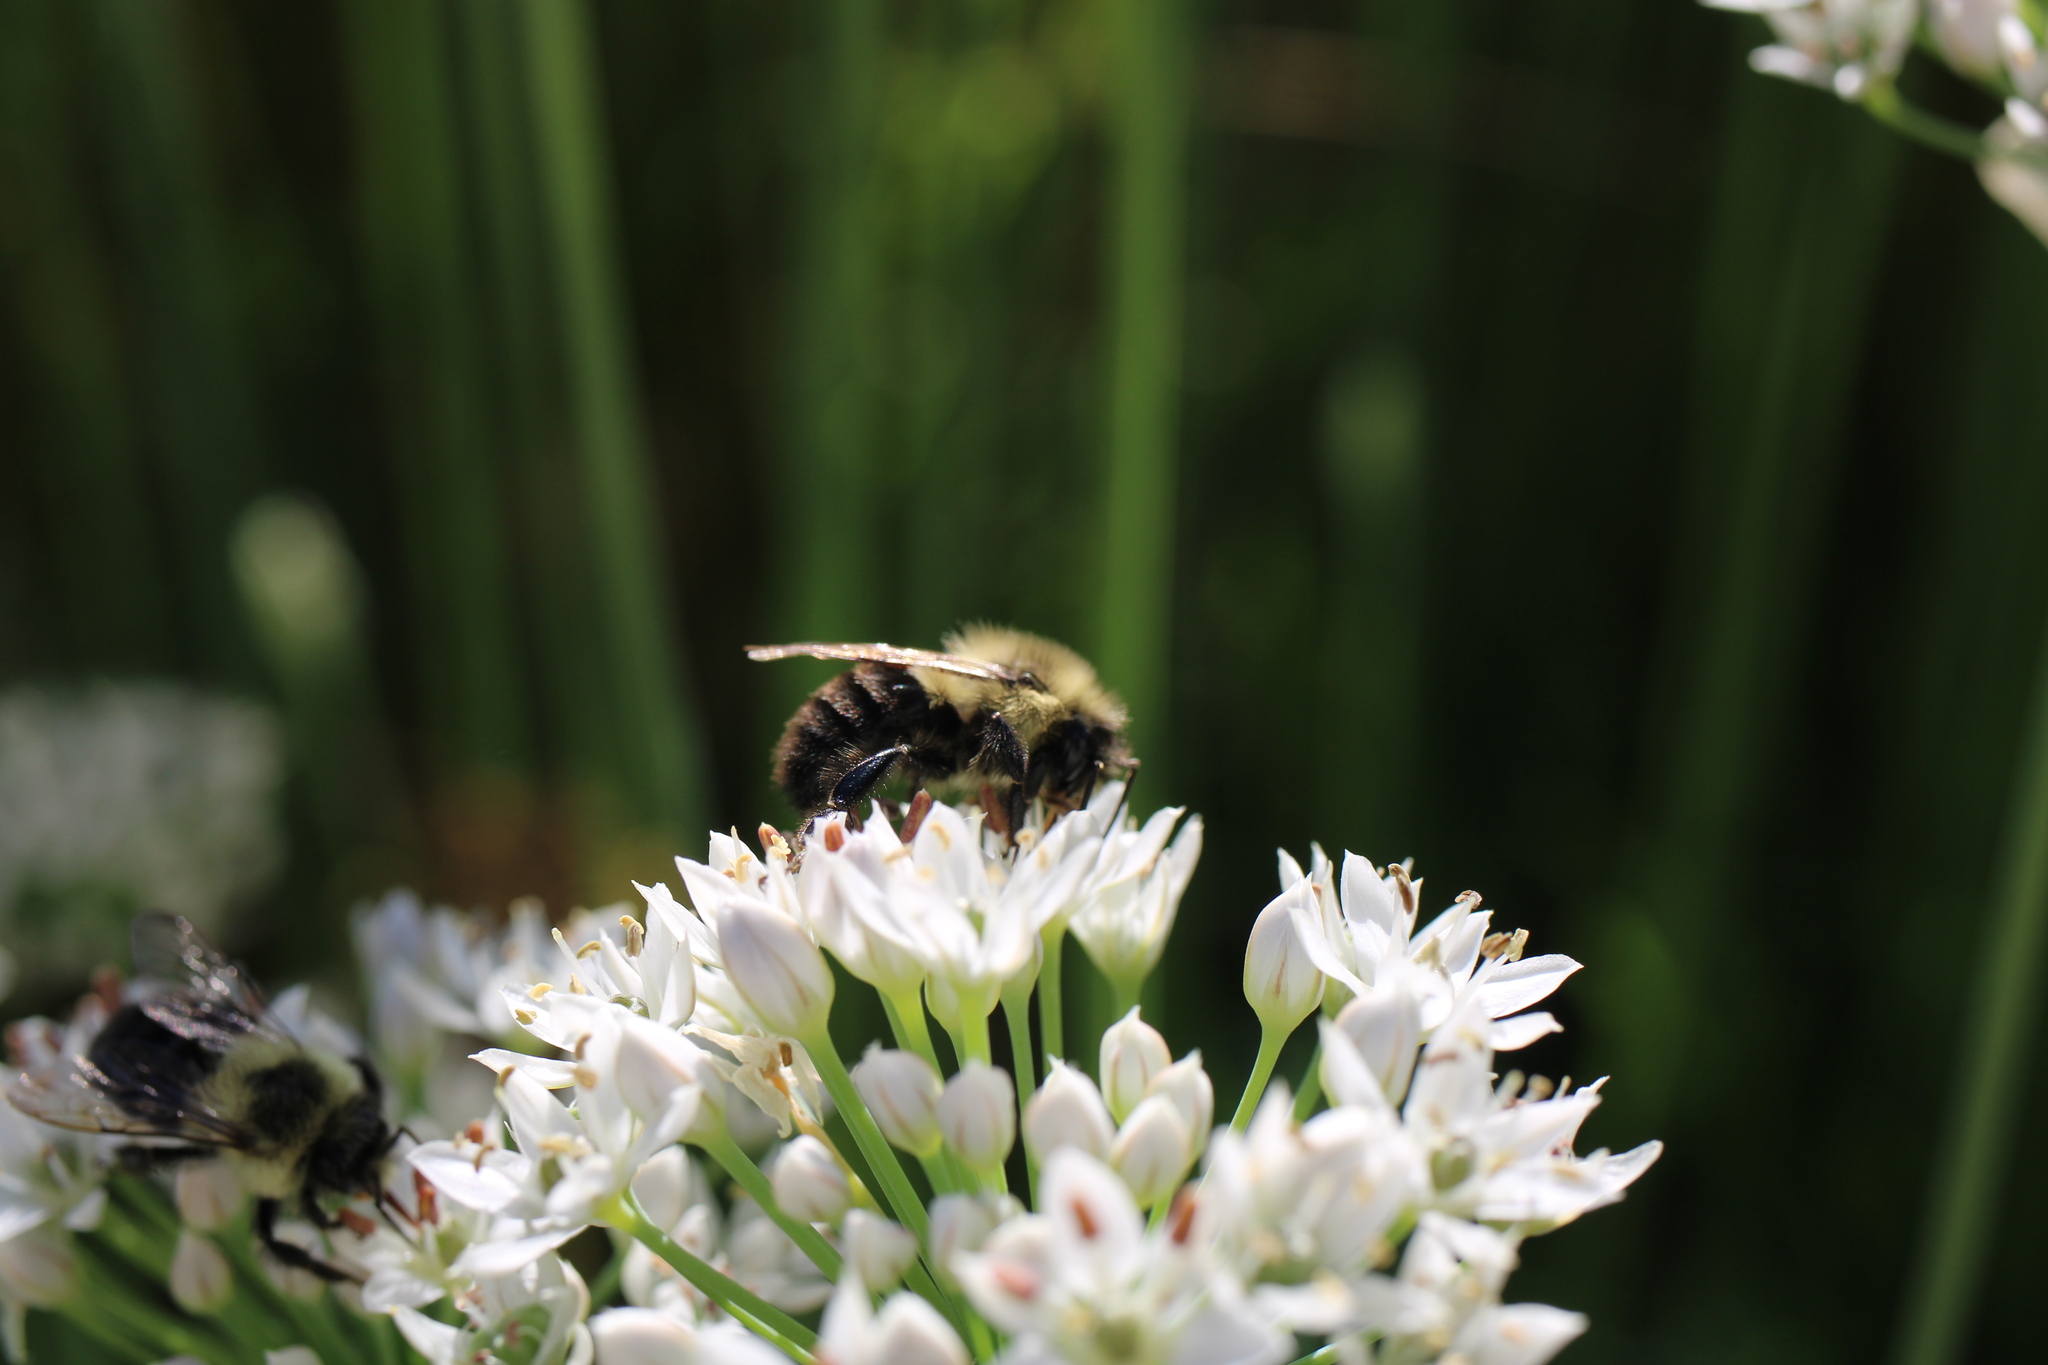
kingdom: Animalia
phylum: Arthropoda
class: Insecta
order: Hymenoptera
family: Apidae
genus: Bombus
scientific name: Bombus impatiens
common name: Common eastern bumble bee
